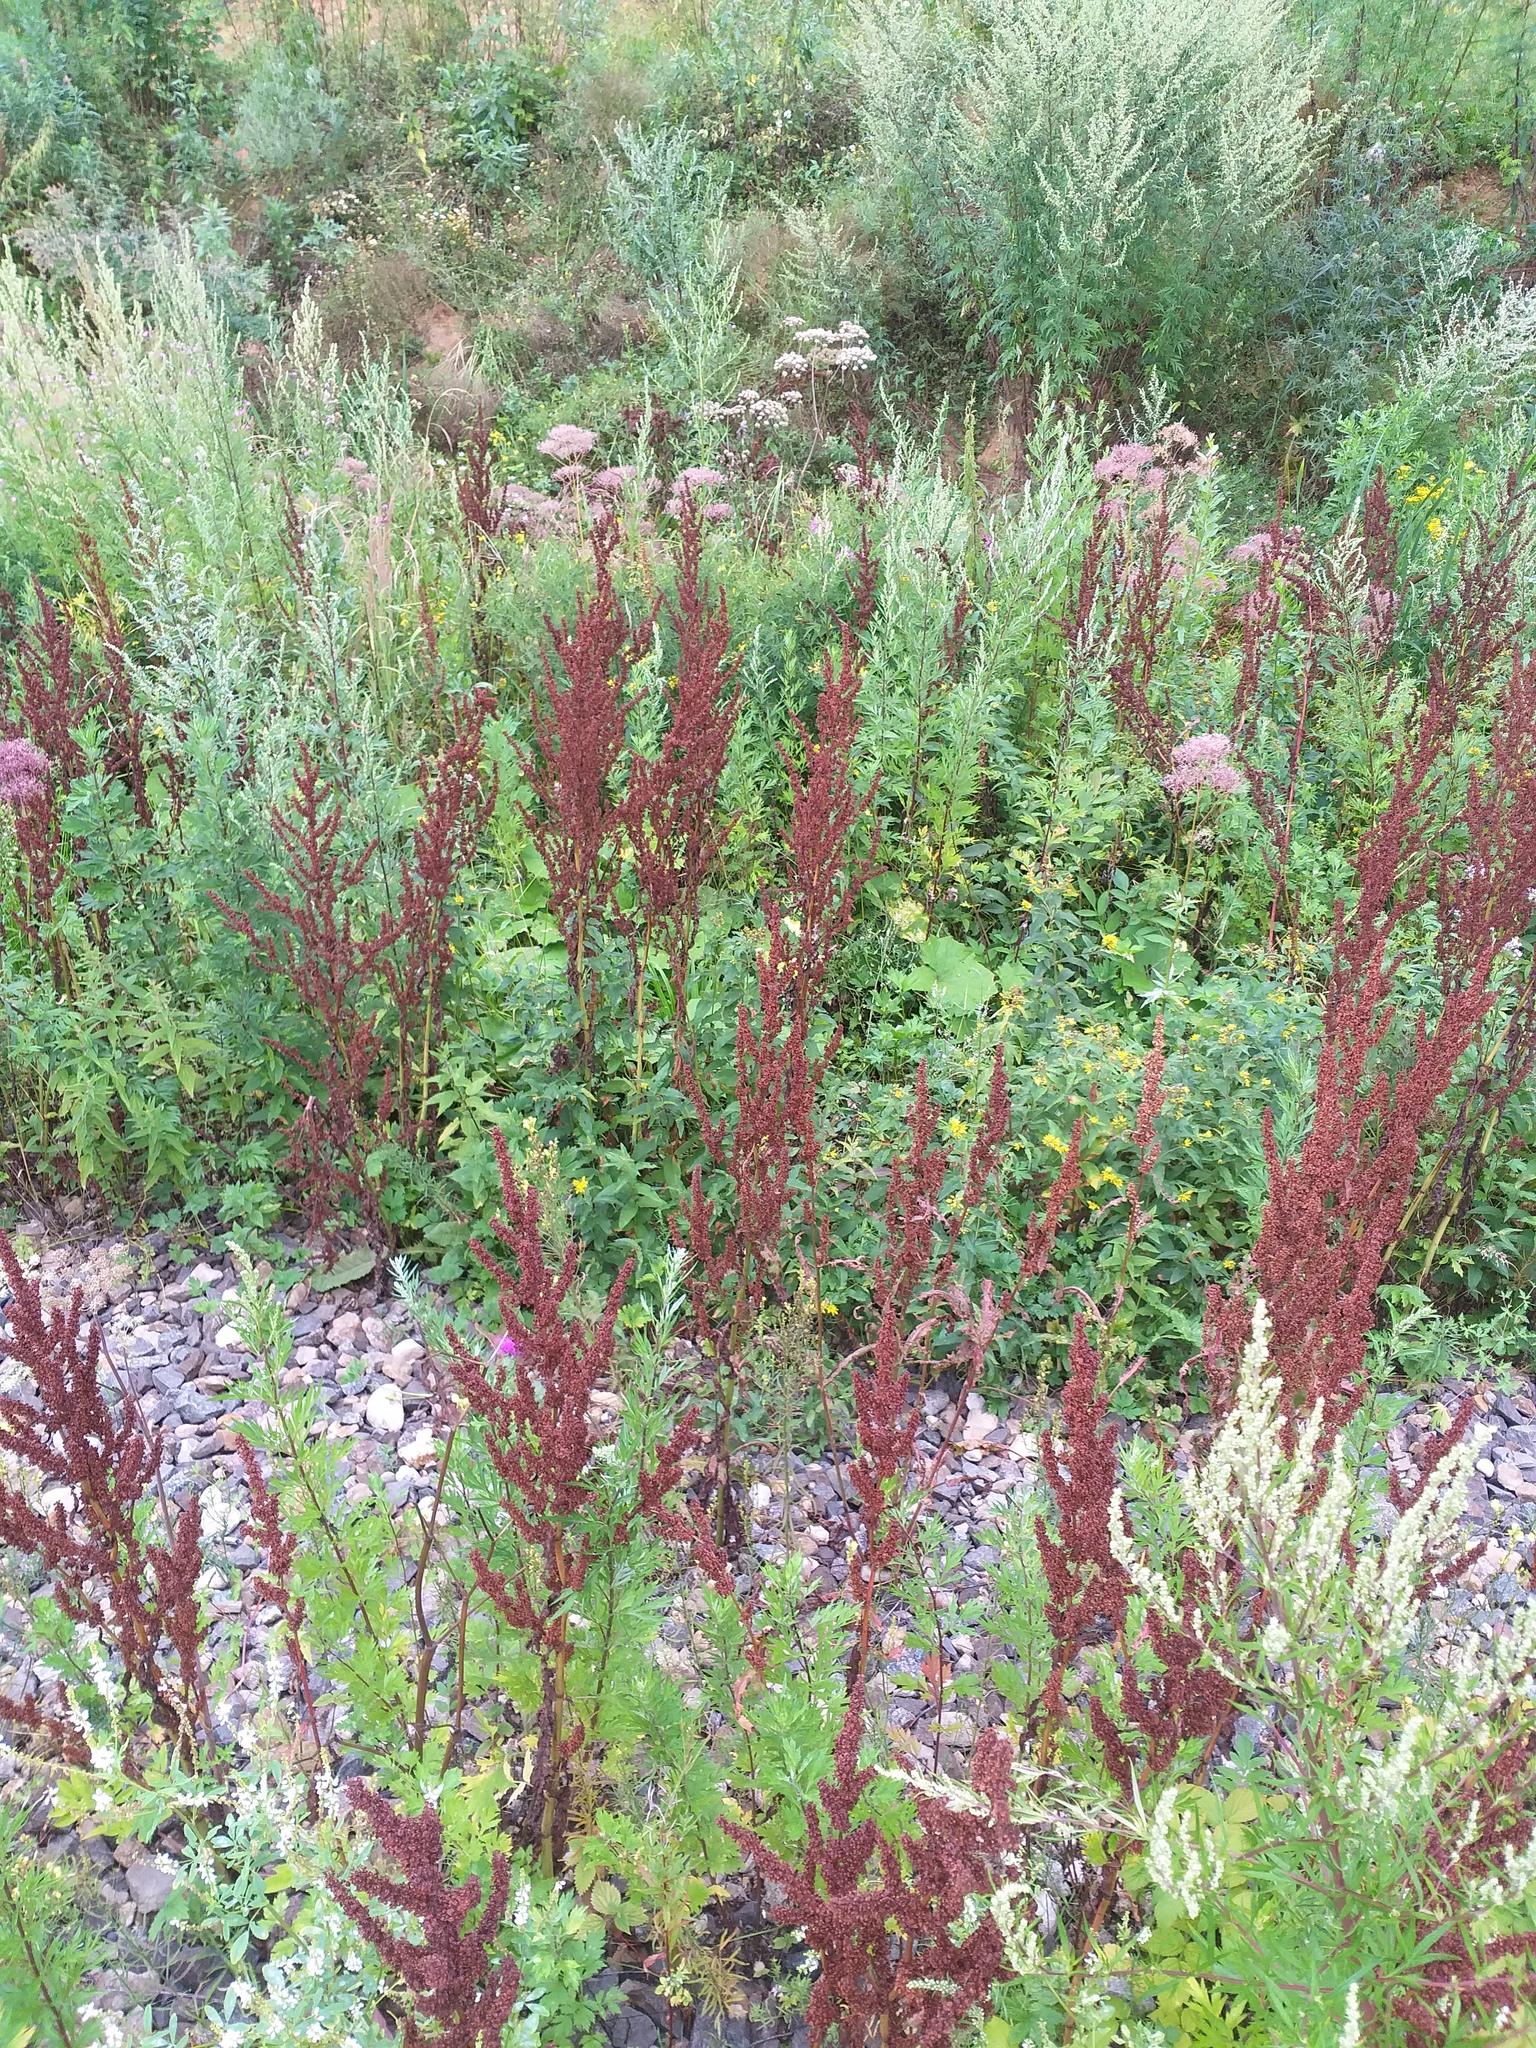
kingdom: Plantae
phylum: Tracheophyta
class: Magnoliopsida
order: Caryophyllales
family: Polygonaceae
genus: Rumex
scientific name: Rumex crispus
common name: Curled dock
